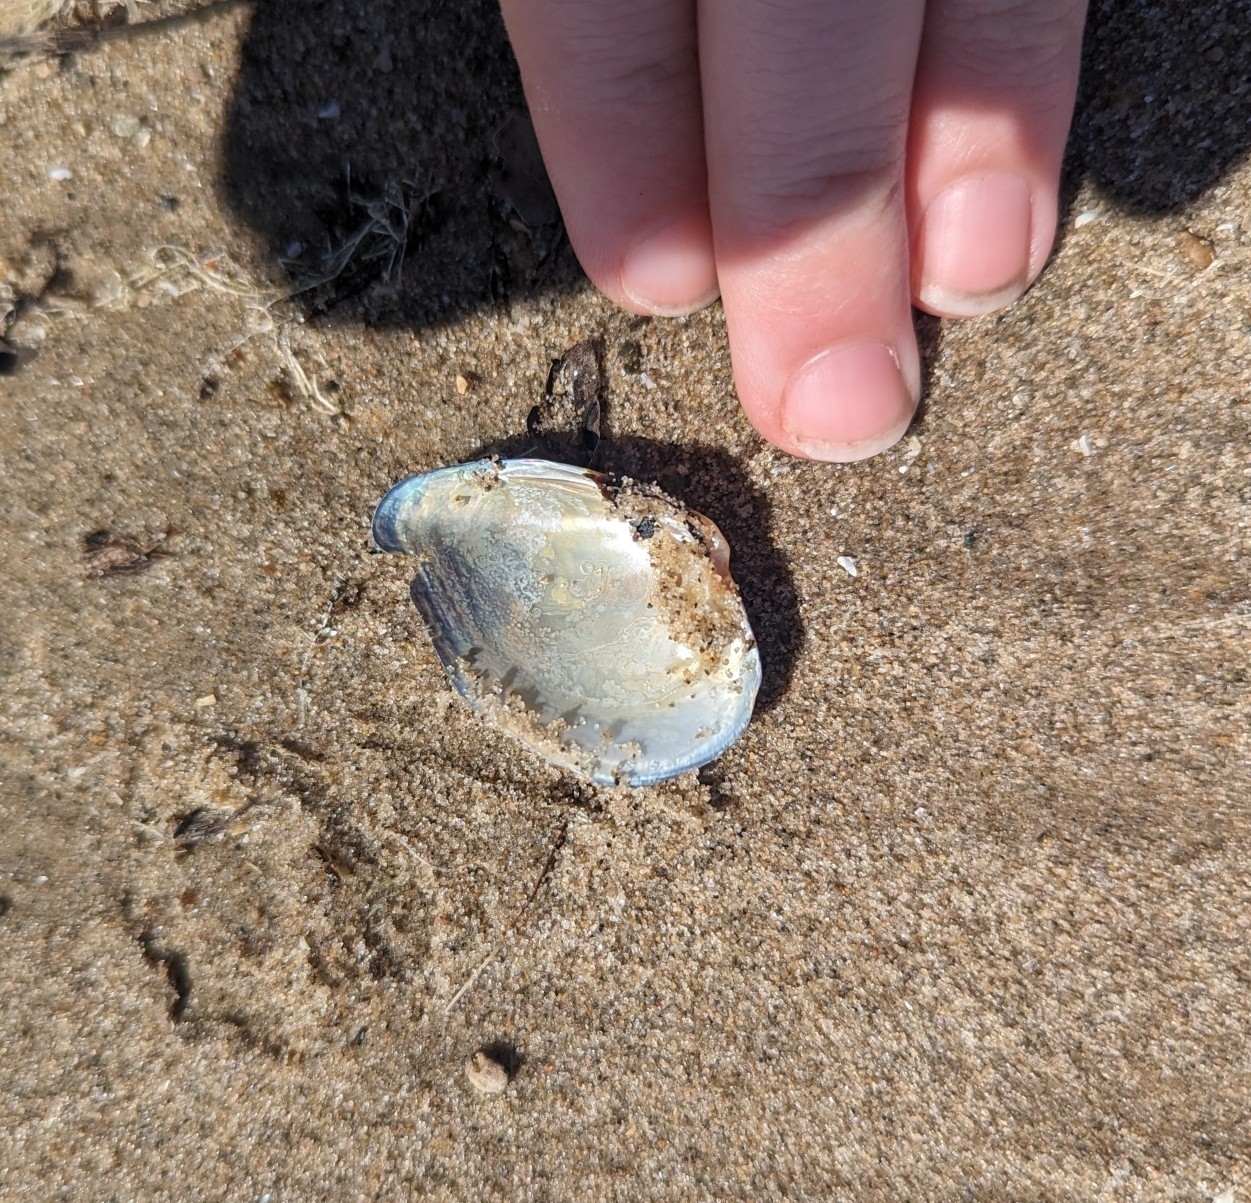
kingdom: Animalia
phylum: Mollusca
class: Bivalvia
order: Unionida
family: Unionidae
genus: Truncilla
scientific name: Truncilla truncata
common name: Deertoe
